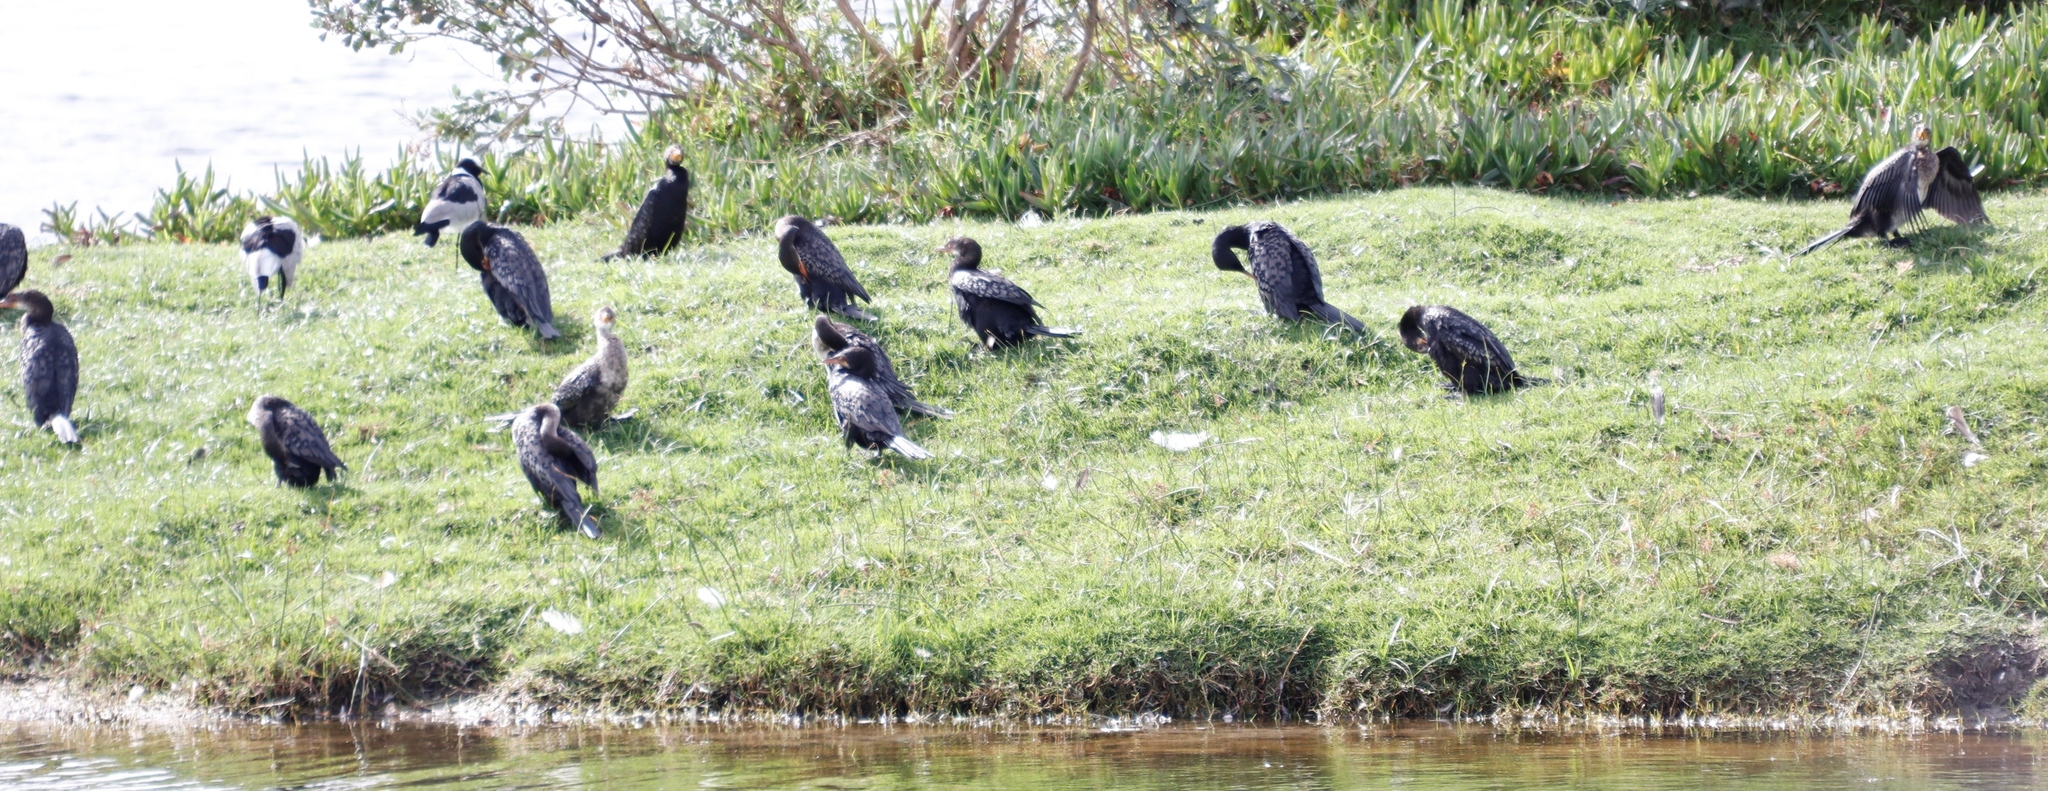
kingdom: Animalia
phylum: Chordata
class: Aves
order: Suliformes
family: Phalacrocoracidae
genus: Microcarbo
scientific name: Microcarbo africanus
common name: Long-tailed cormorant
